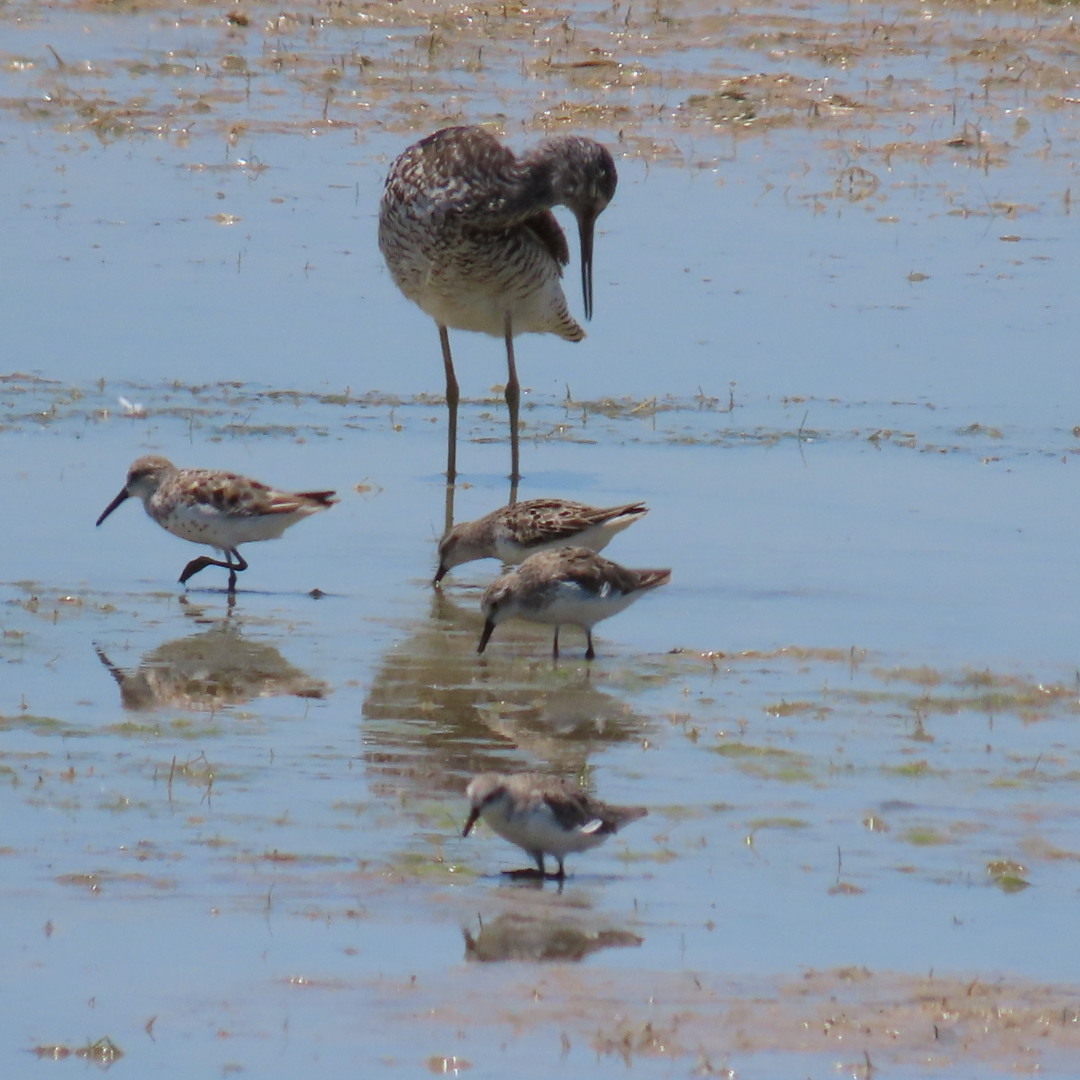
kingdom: Animalia
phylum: Chordata
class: Aves
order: Charadriiformes
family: Scolopacidae
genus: Calidris
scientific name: Calidris mauri
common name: Western sandpiper
